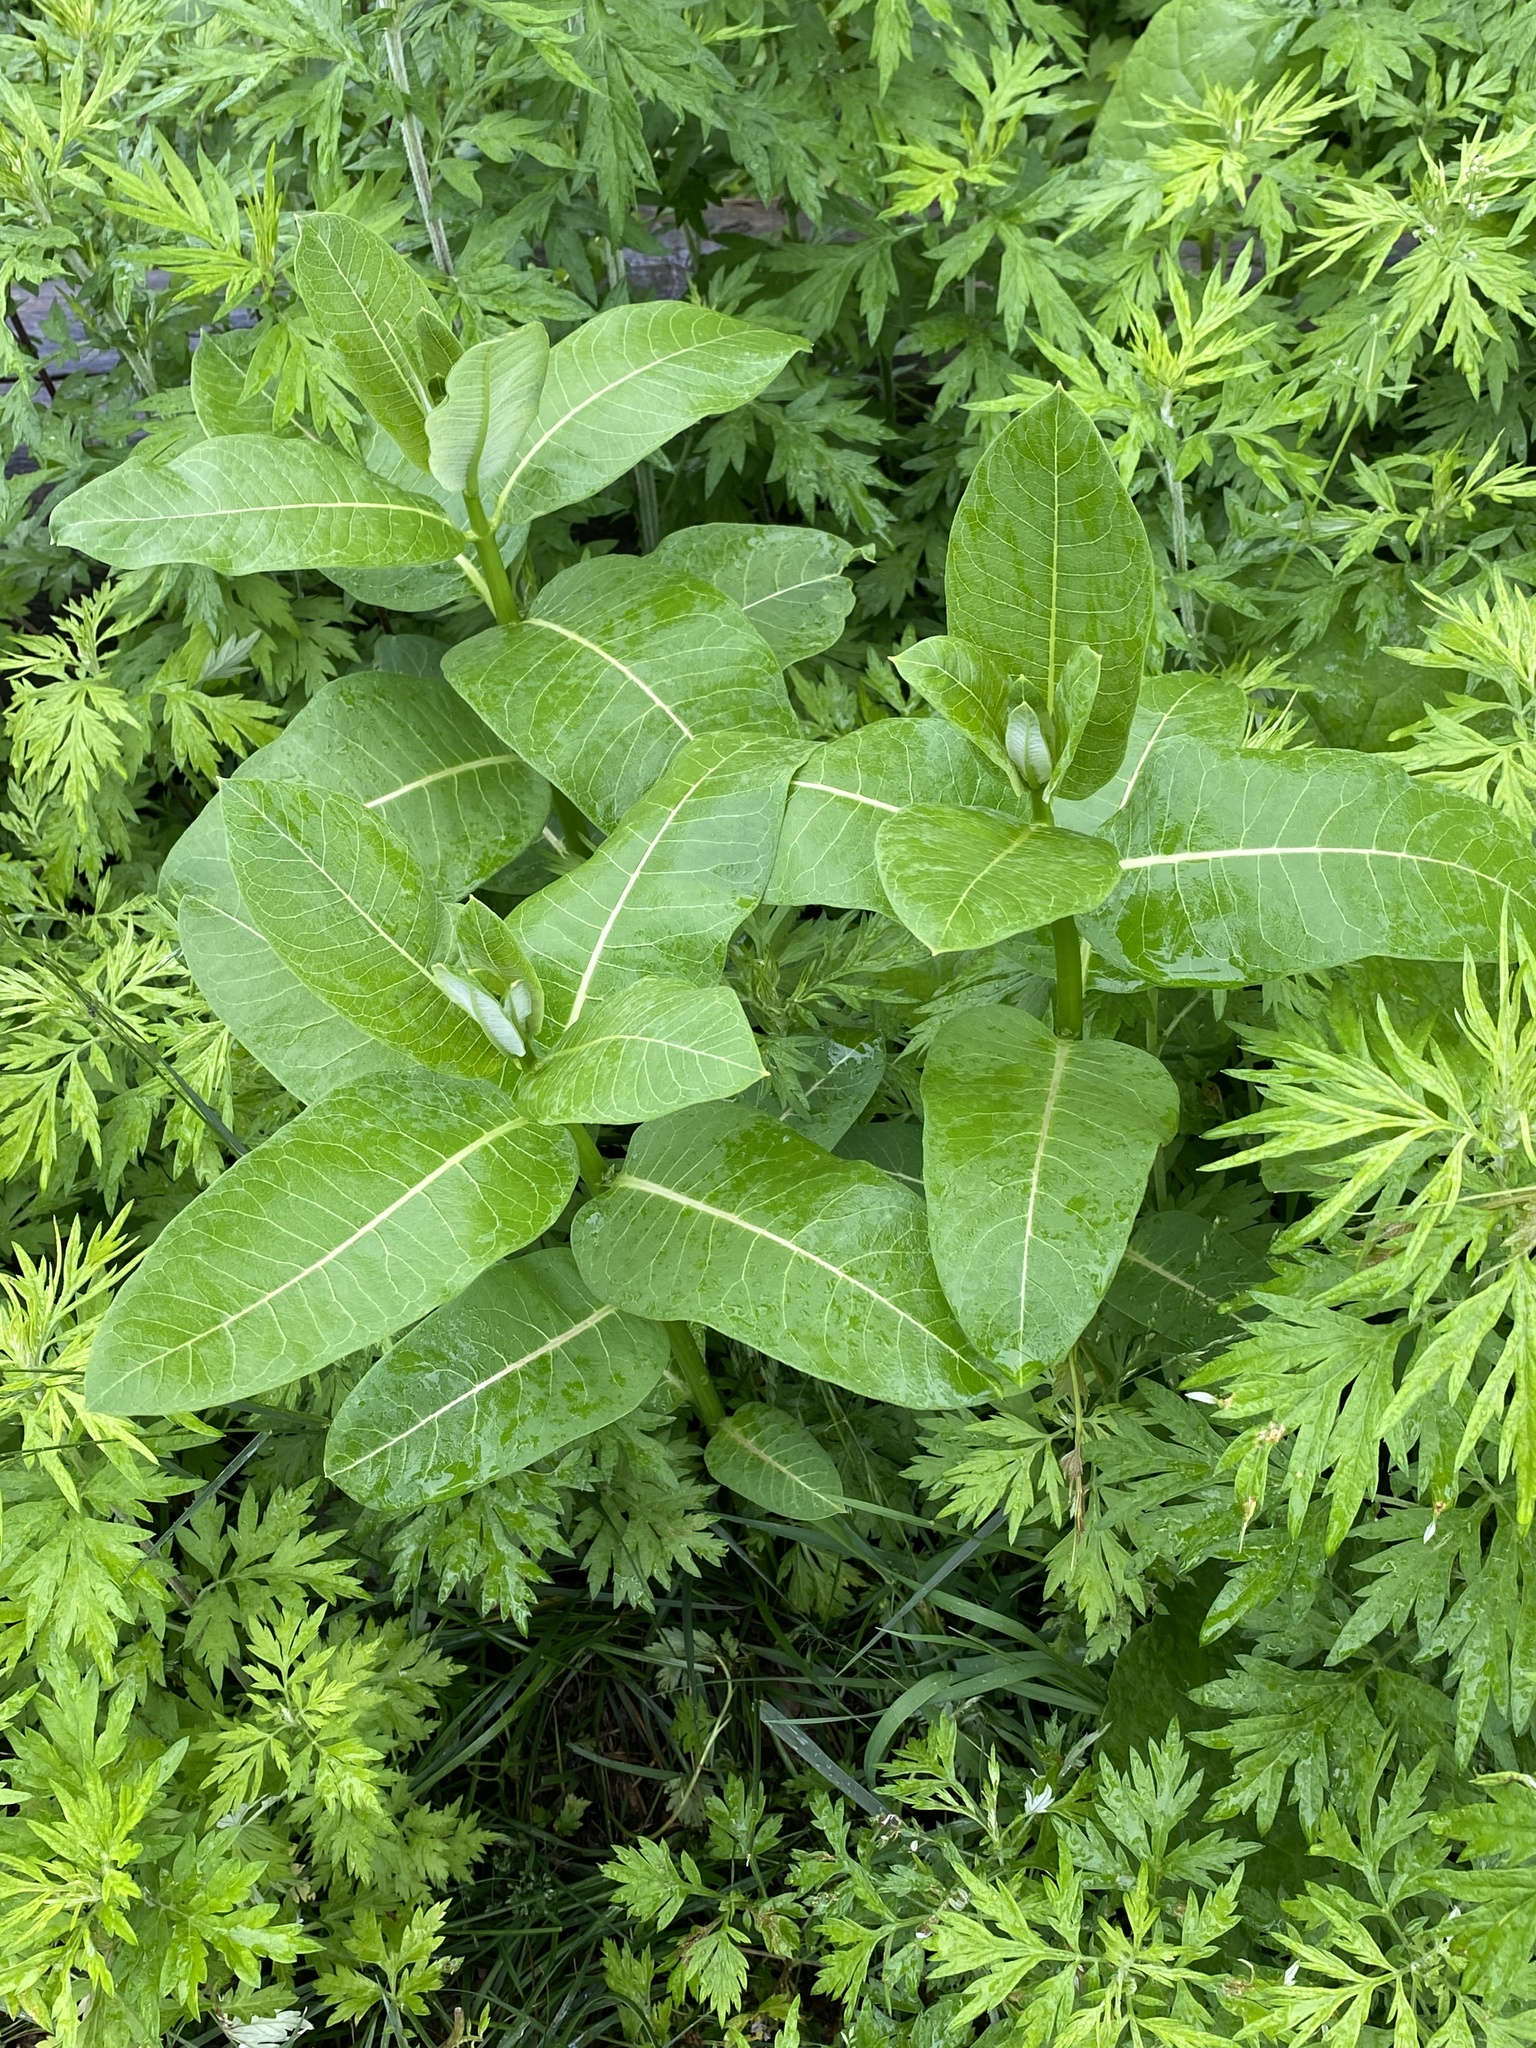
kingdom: Plantae
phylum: Tracheophyta
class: Magnoliopsida
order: Gentianales
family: Apocynaceae
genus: Asclepias
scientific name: Asclepias syriaca
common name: Common milkweed
